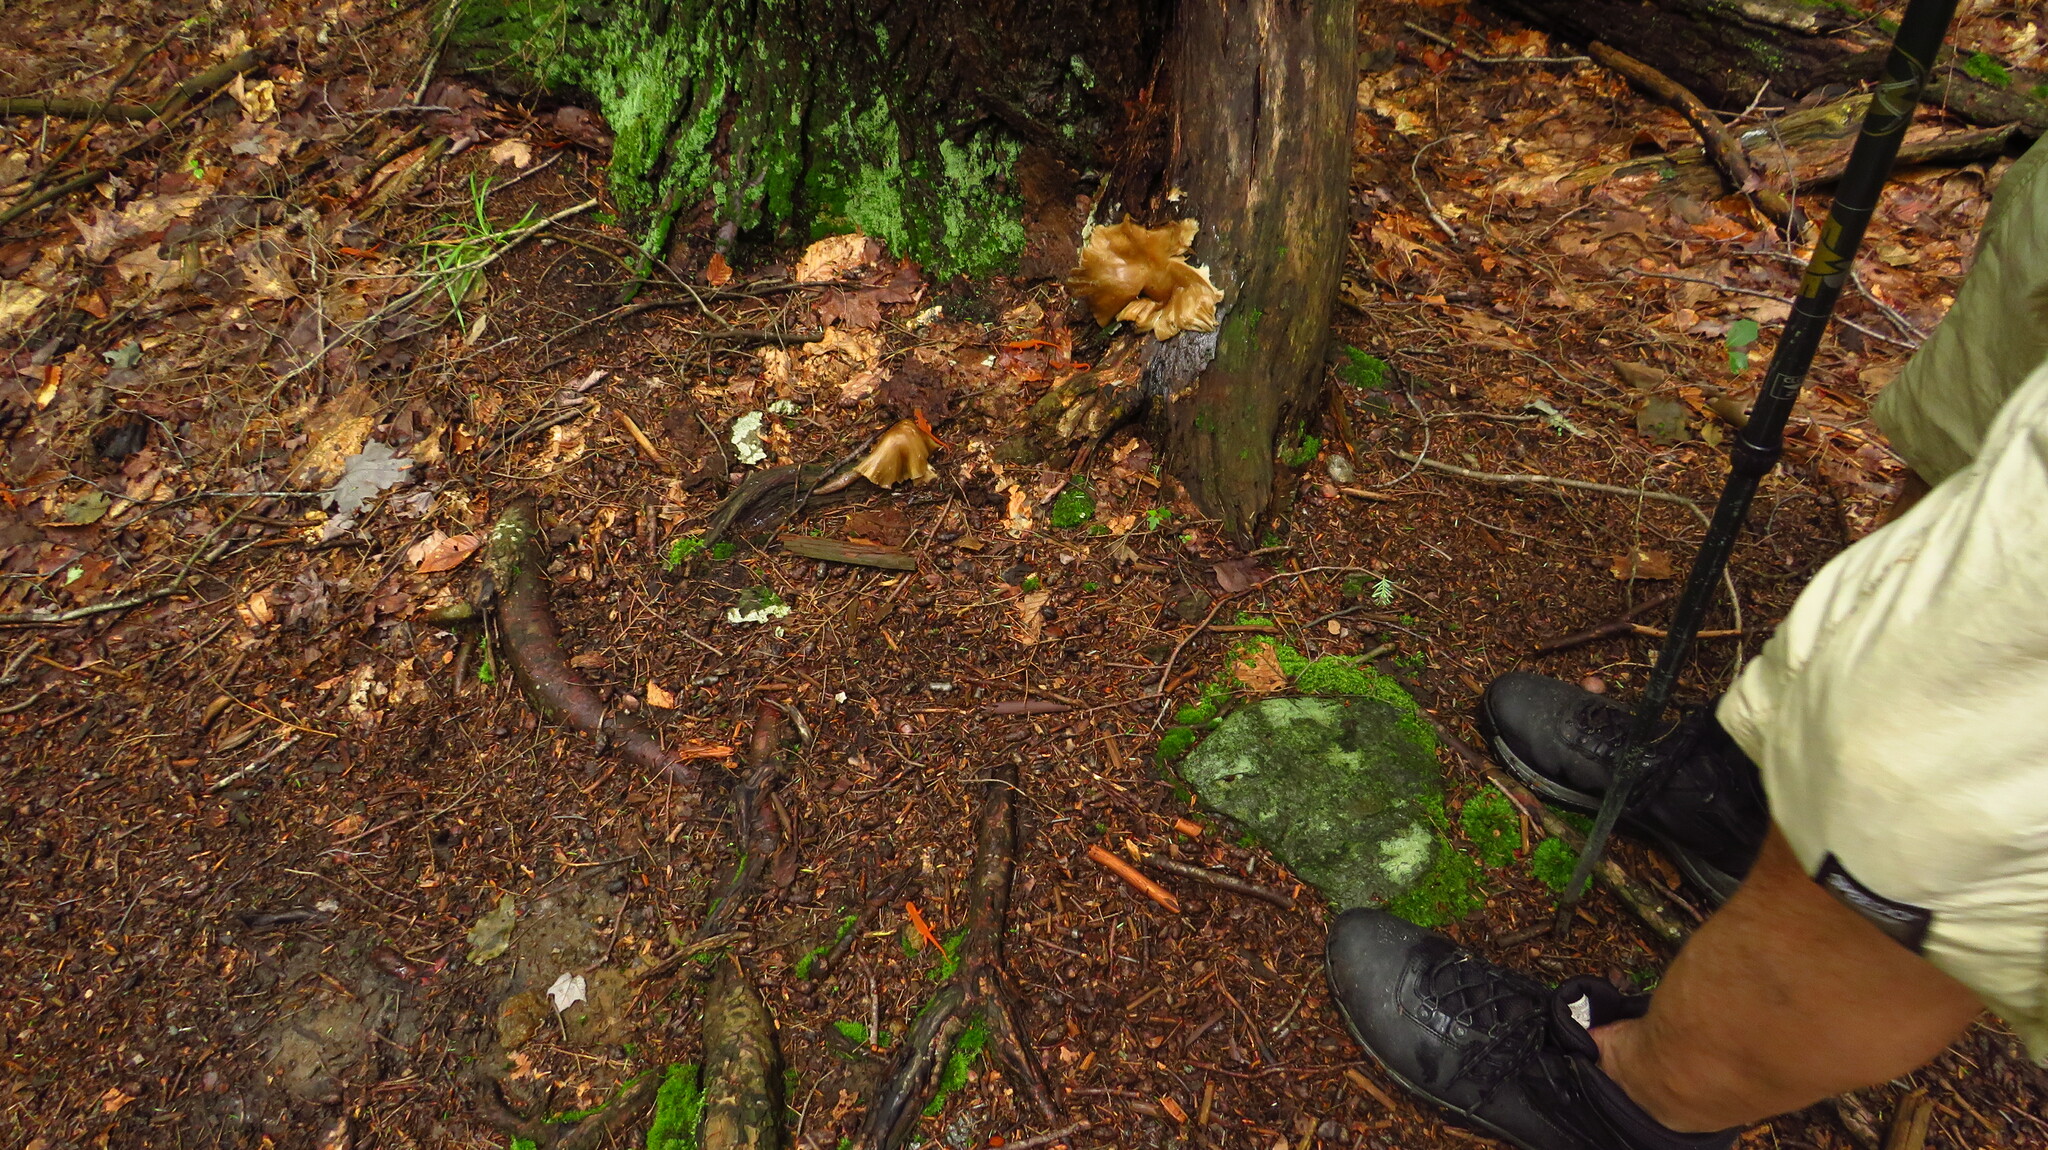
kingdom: Animalia
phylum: Chordata
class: Amphibia
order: Caudata
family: Salamandridae
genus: Notophthalmus
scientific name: Notophthalmus viridescens
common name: Eastern newt
